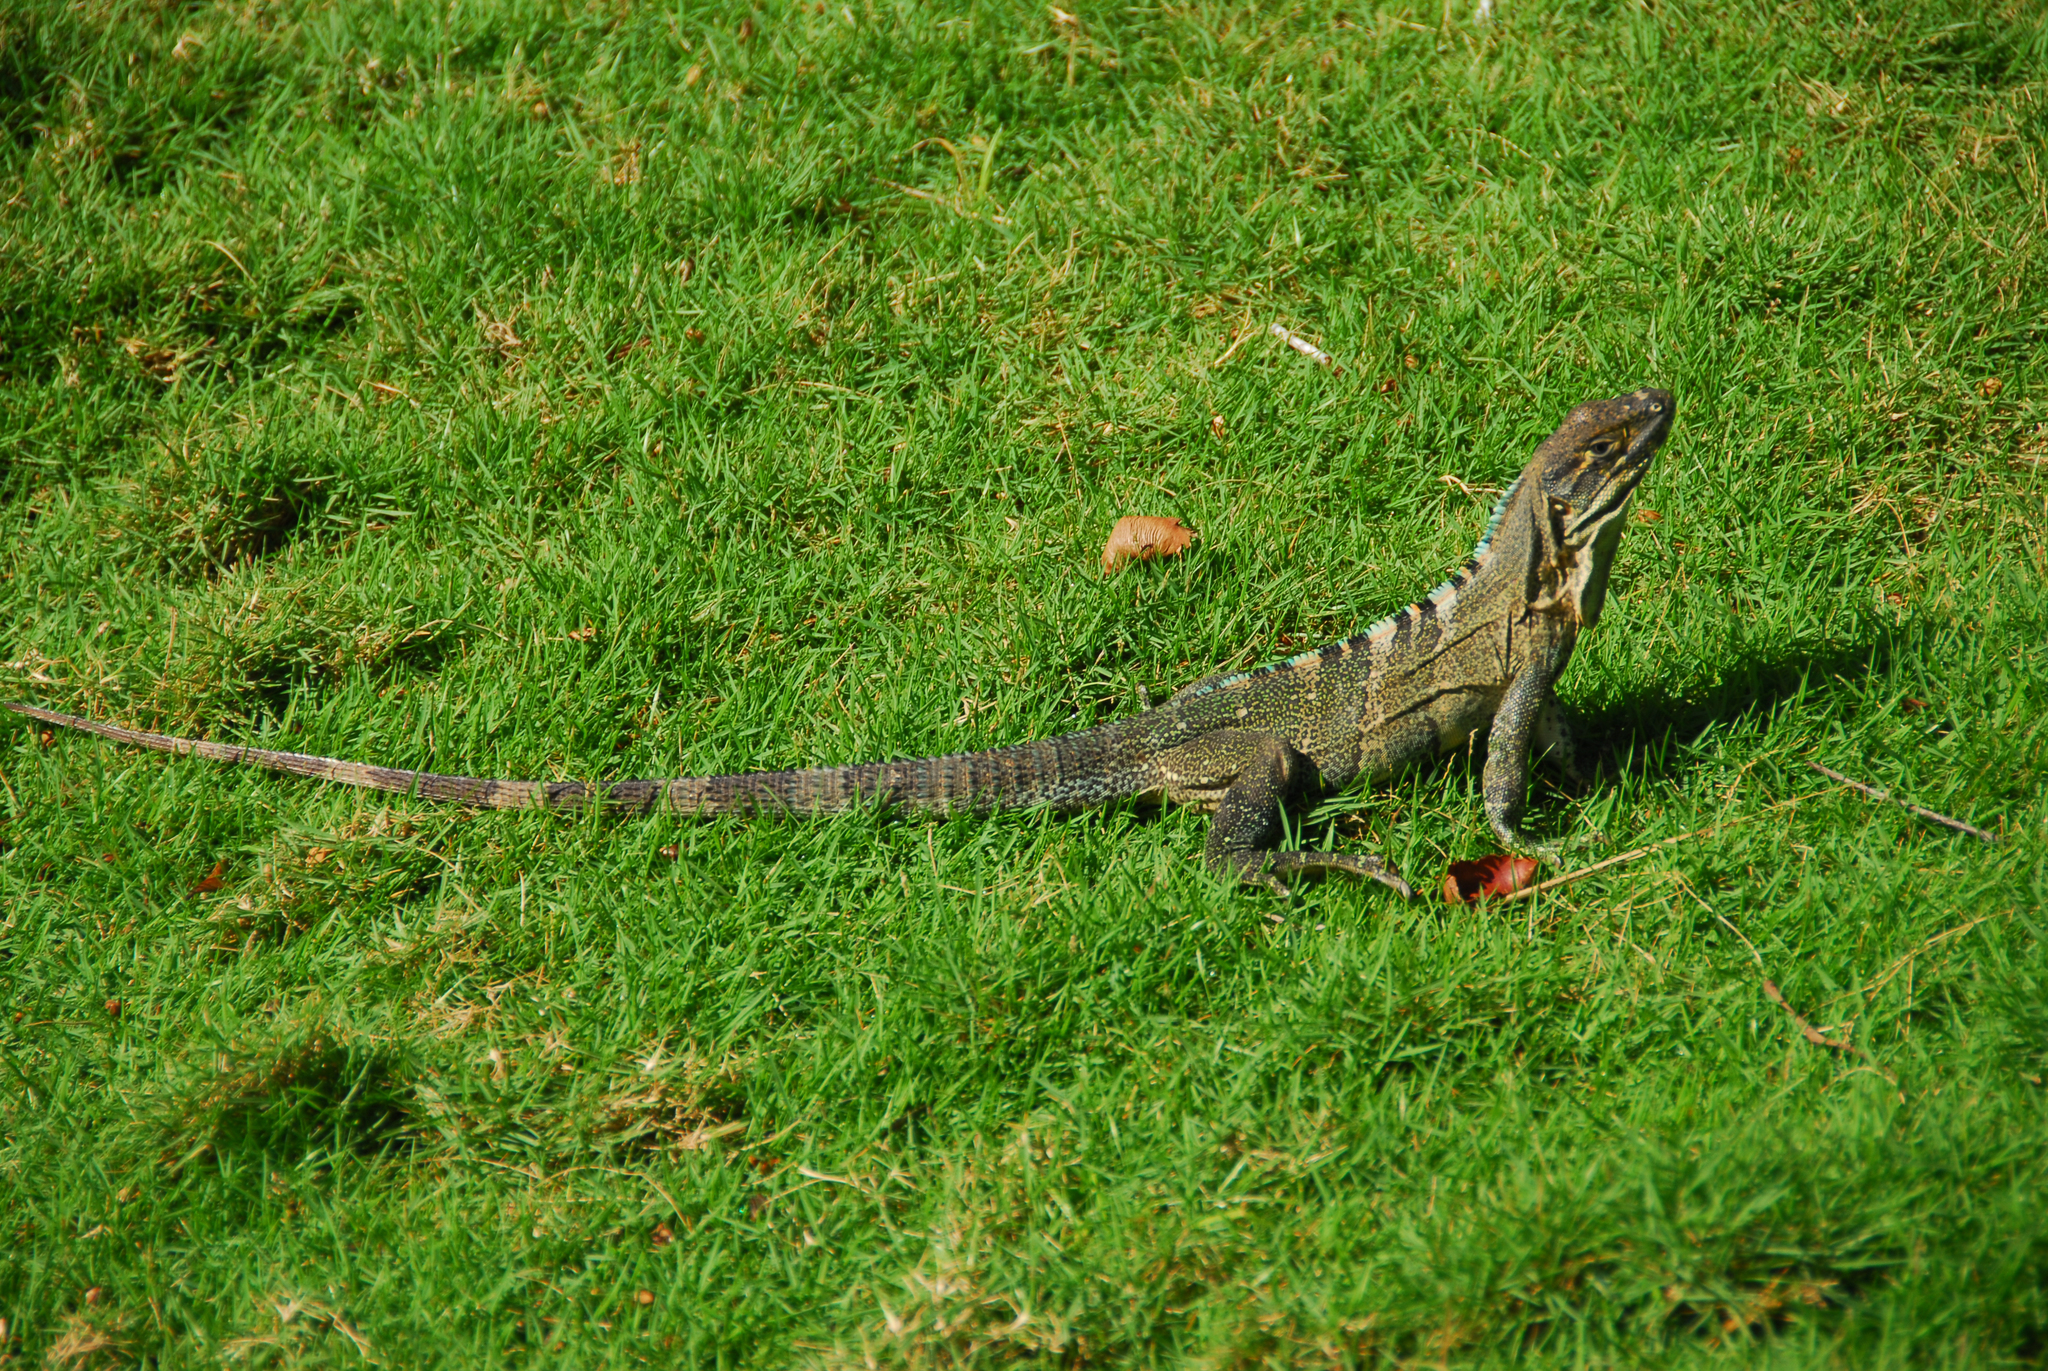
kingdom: Animalia
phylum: Chordata
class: Squamata
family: Iguanidae
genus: Ctenosaura
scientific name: Ctenosaura similis
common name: Black spiny-tailed iguana
